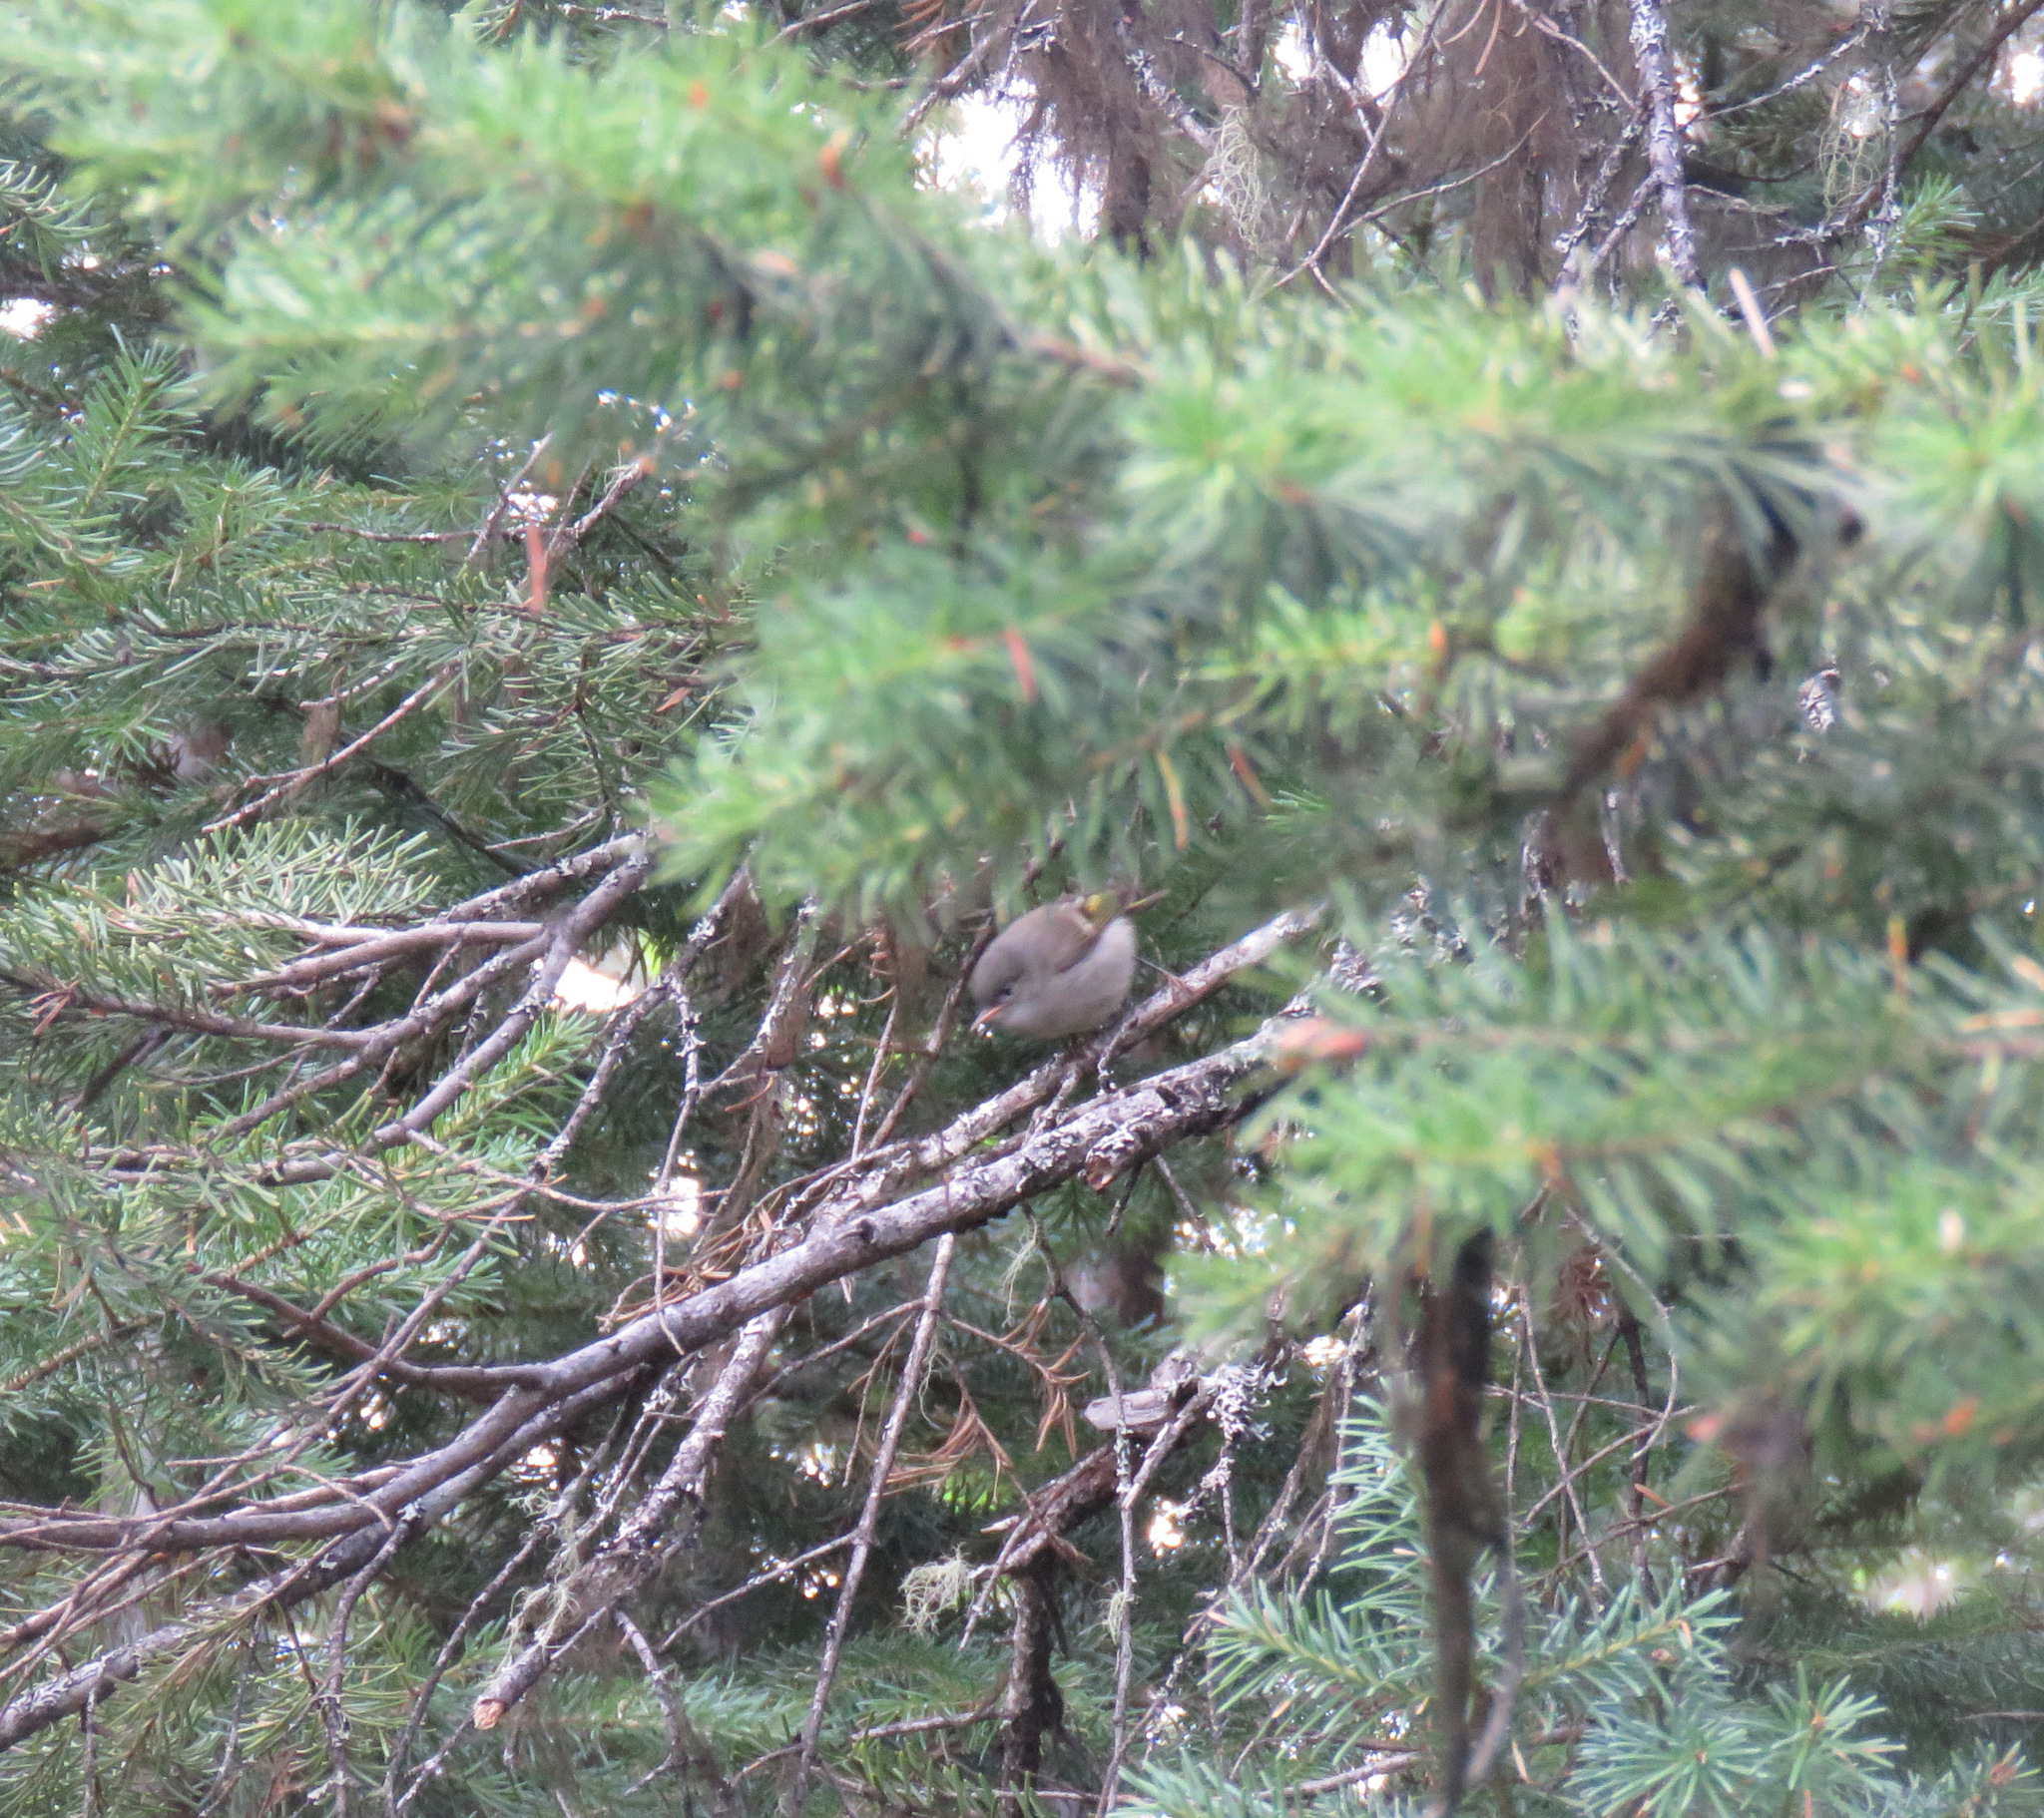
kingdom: Animalia
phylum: Chordata
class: Aves
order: Passeriformes
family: Regulidae
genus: Regulus
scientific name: Regulus calendula
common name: Ruby-crowned kinglet
